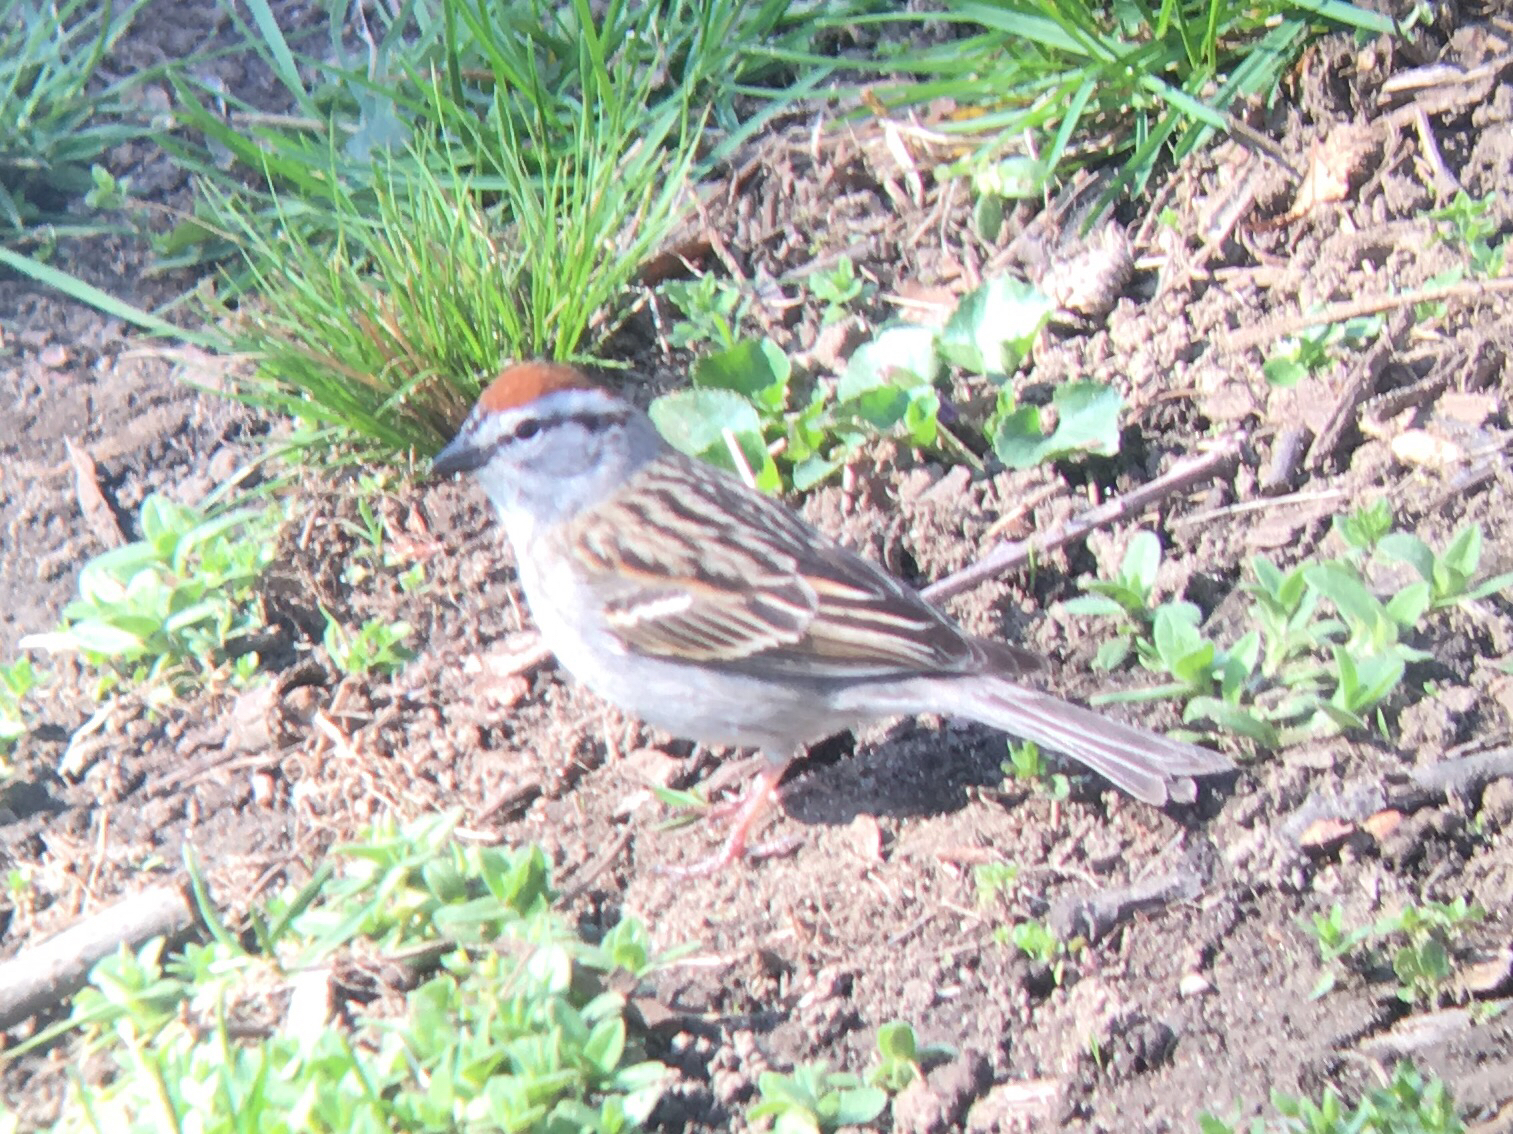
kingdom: Animalia
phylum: Chordata
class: Aves
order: Passeriformes
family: Passerellidae
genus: Spizella
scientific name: Spizella passerina
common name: Chipping sparrow
